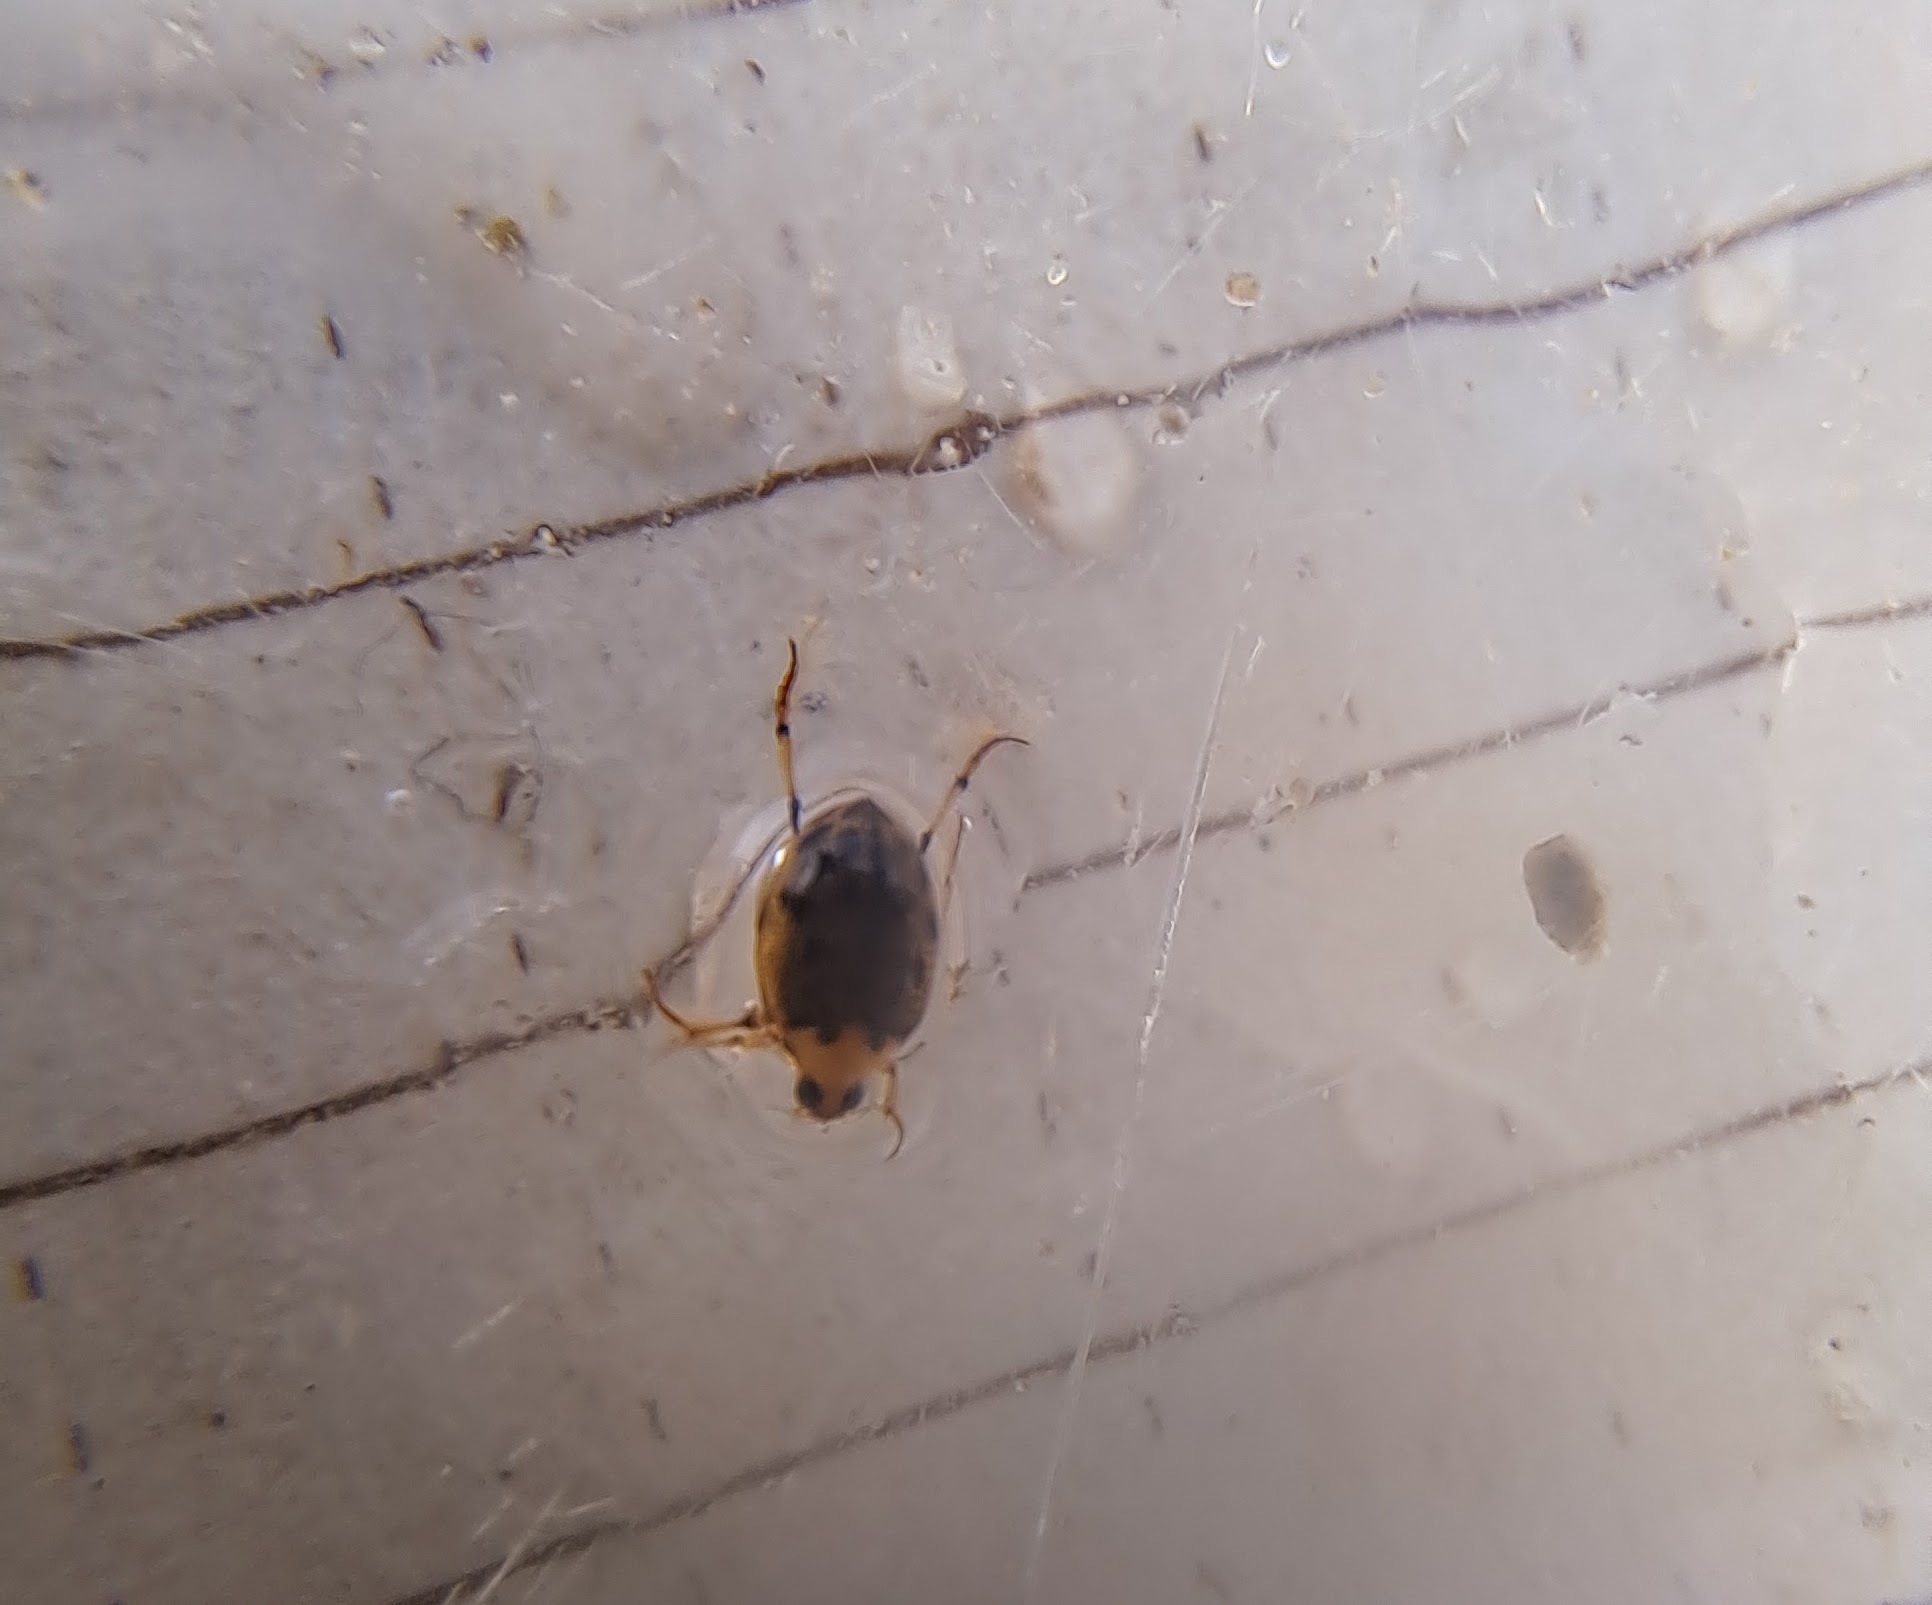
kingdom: Animalia
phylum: Arthropoda
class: Insecta
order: Coleoptera
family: Haliplidae
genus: Peltodytes
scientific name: Peltodytes
